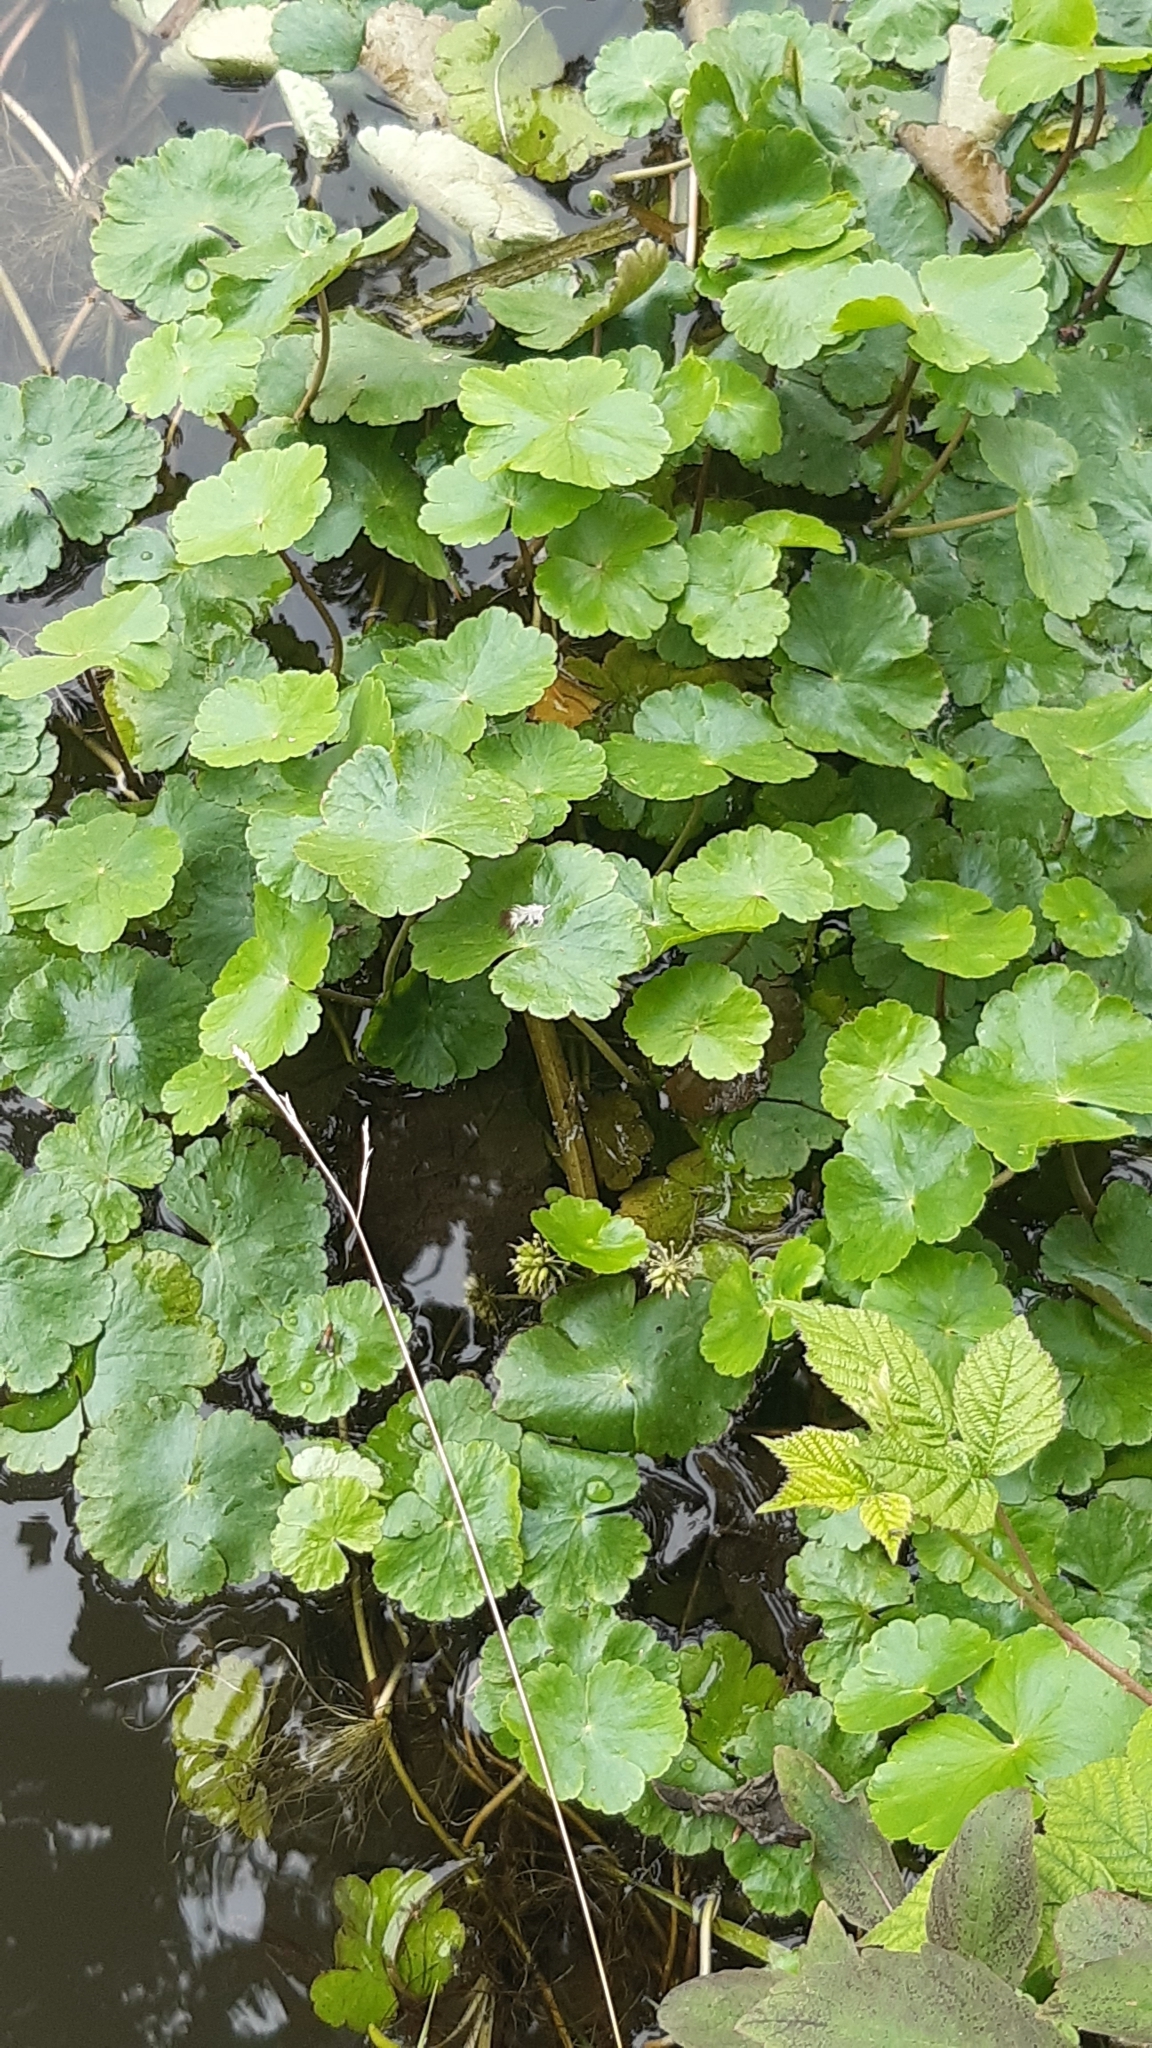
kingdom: Plantae
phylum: Tracheophyta
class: Magnoliopsida
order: Apiales
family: Araliaceae
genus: Hydrocotyle
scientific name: Hydrocotyle ranunculoides
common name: Floating pennywort
